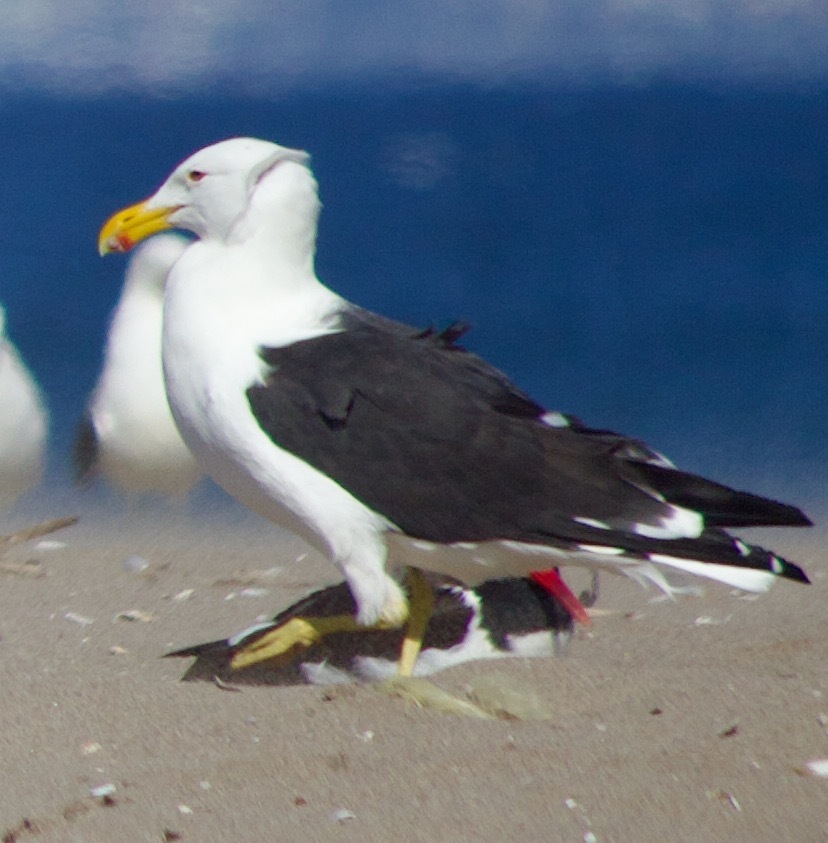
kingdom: Animalia
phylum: Chordata
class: Aves
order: Charadriiformes
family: Laridae
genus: Larus
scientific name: Larus dominicanus
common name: Kelp gull
